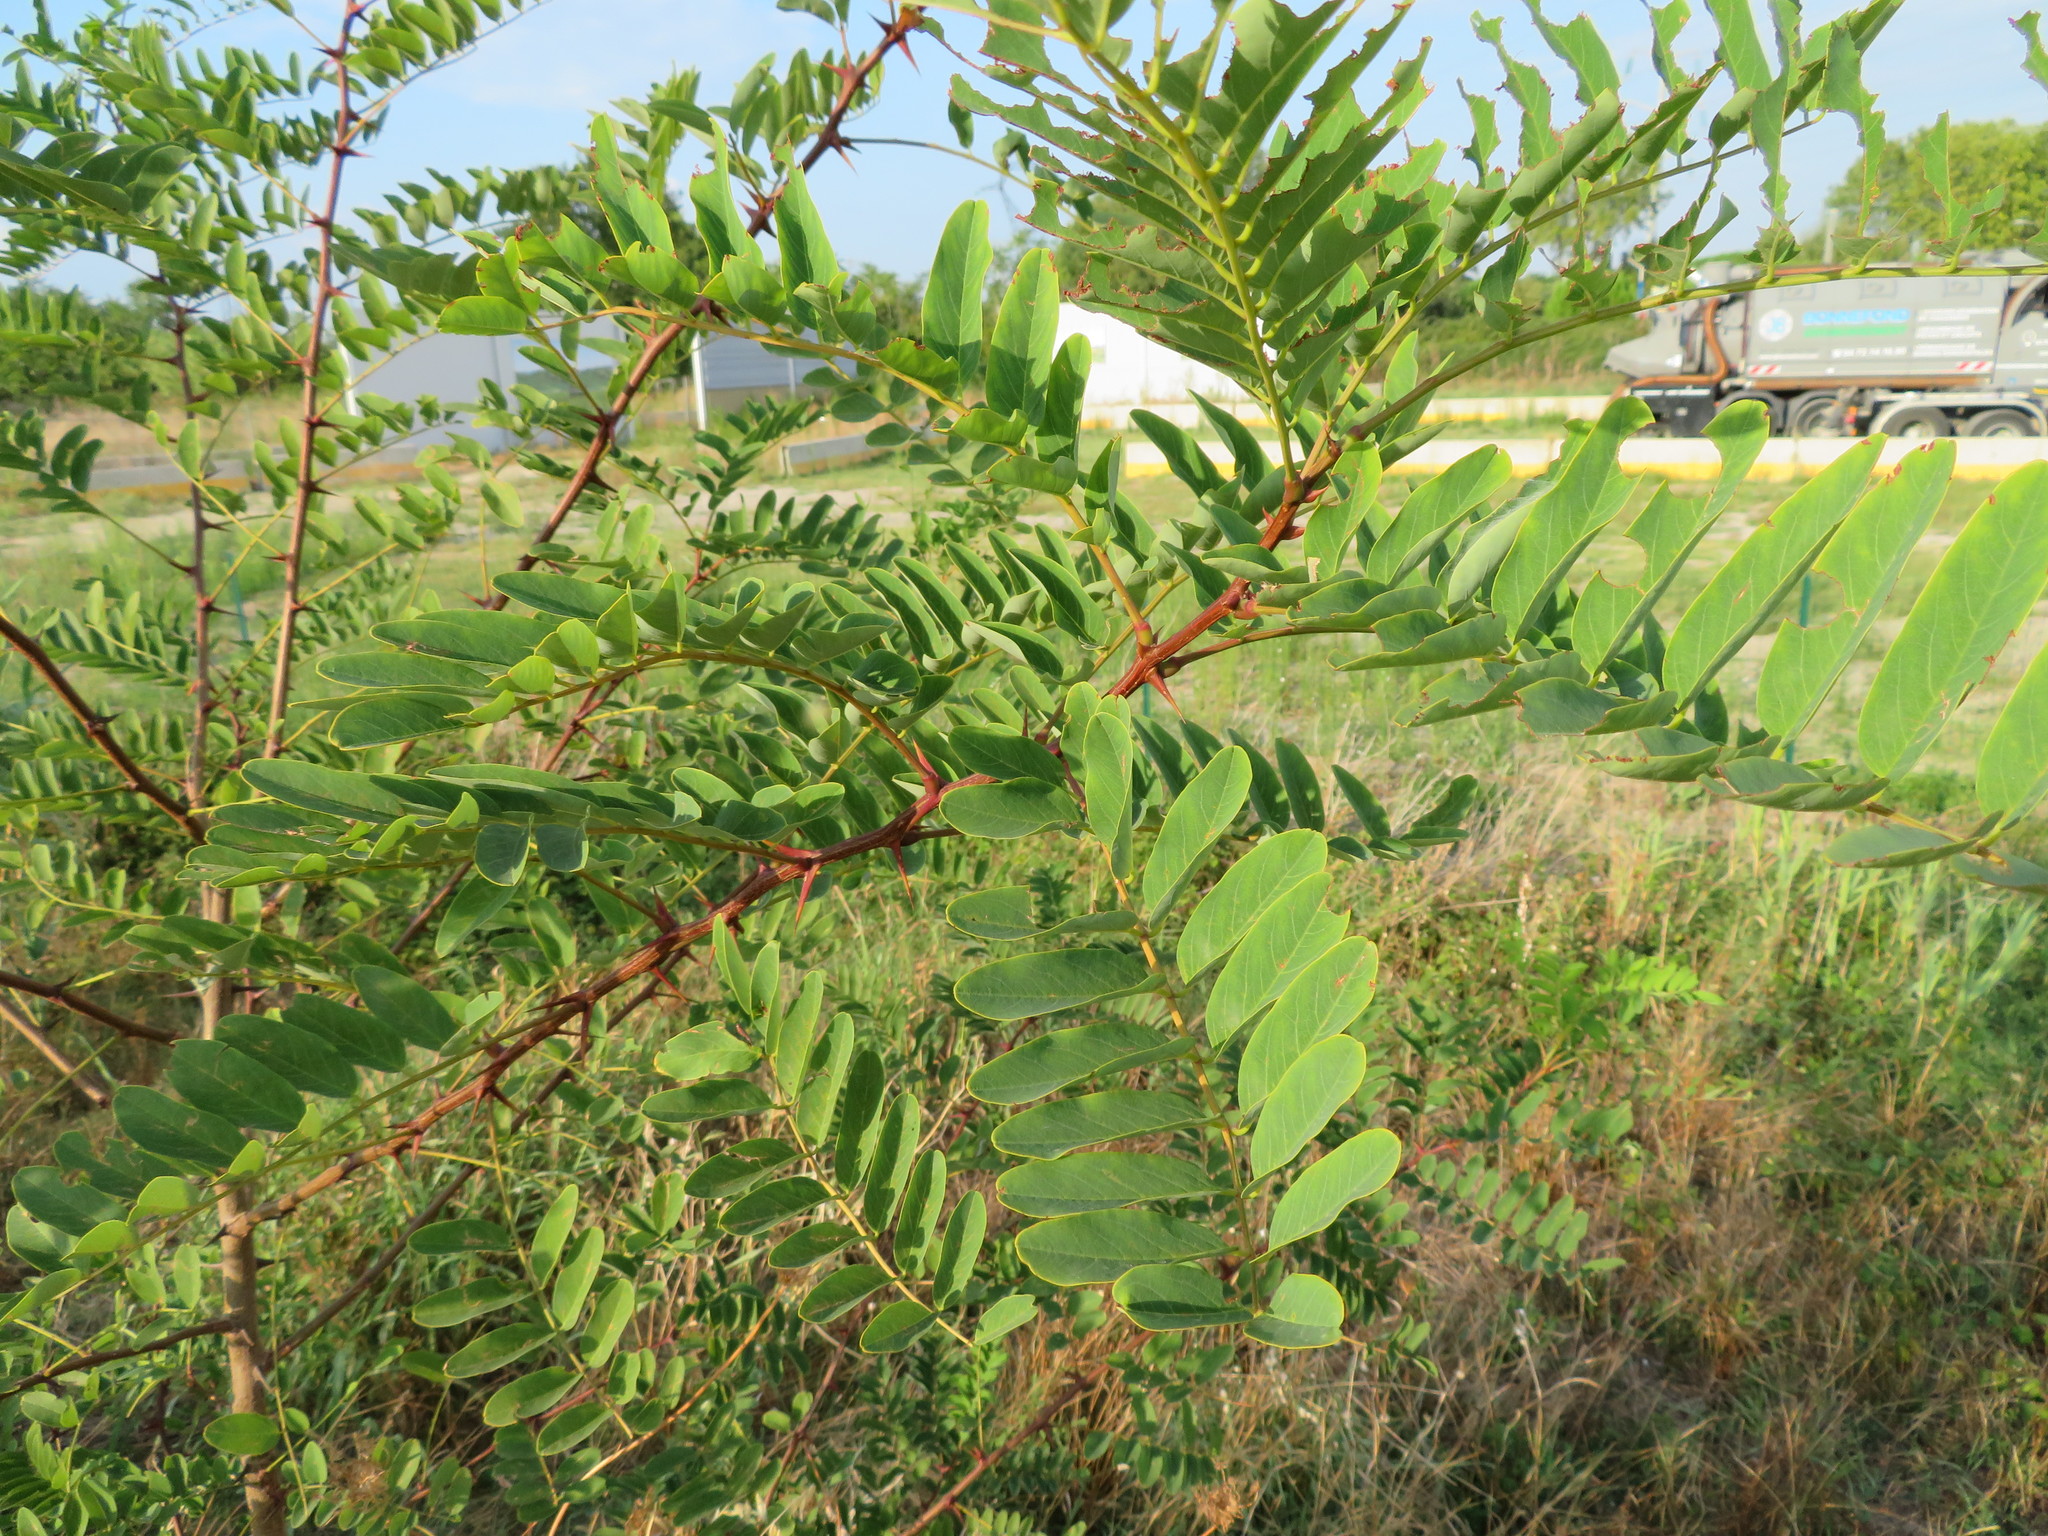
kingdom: Plantae
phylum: Tracheophyta
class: Magnoliopsida
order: Fabales
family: Fabaceae
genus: Robinia
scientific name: Robinia pseudoacacia
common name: Black locust
